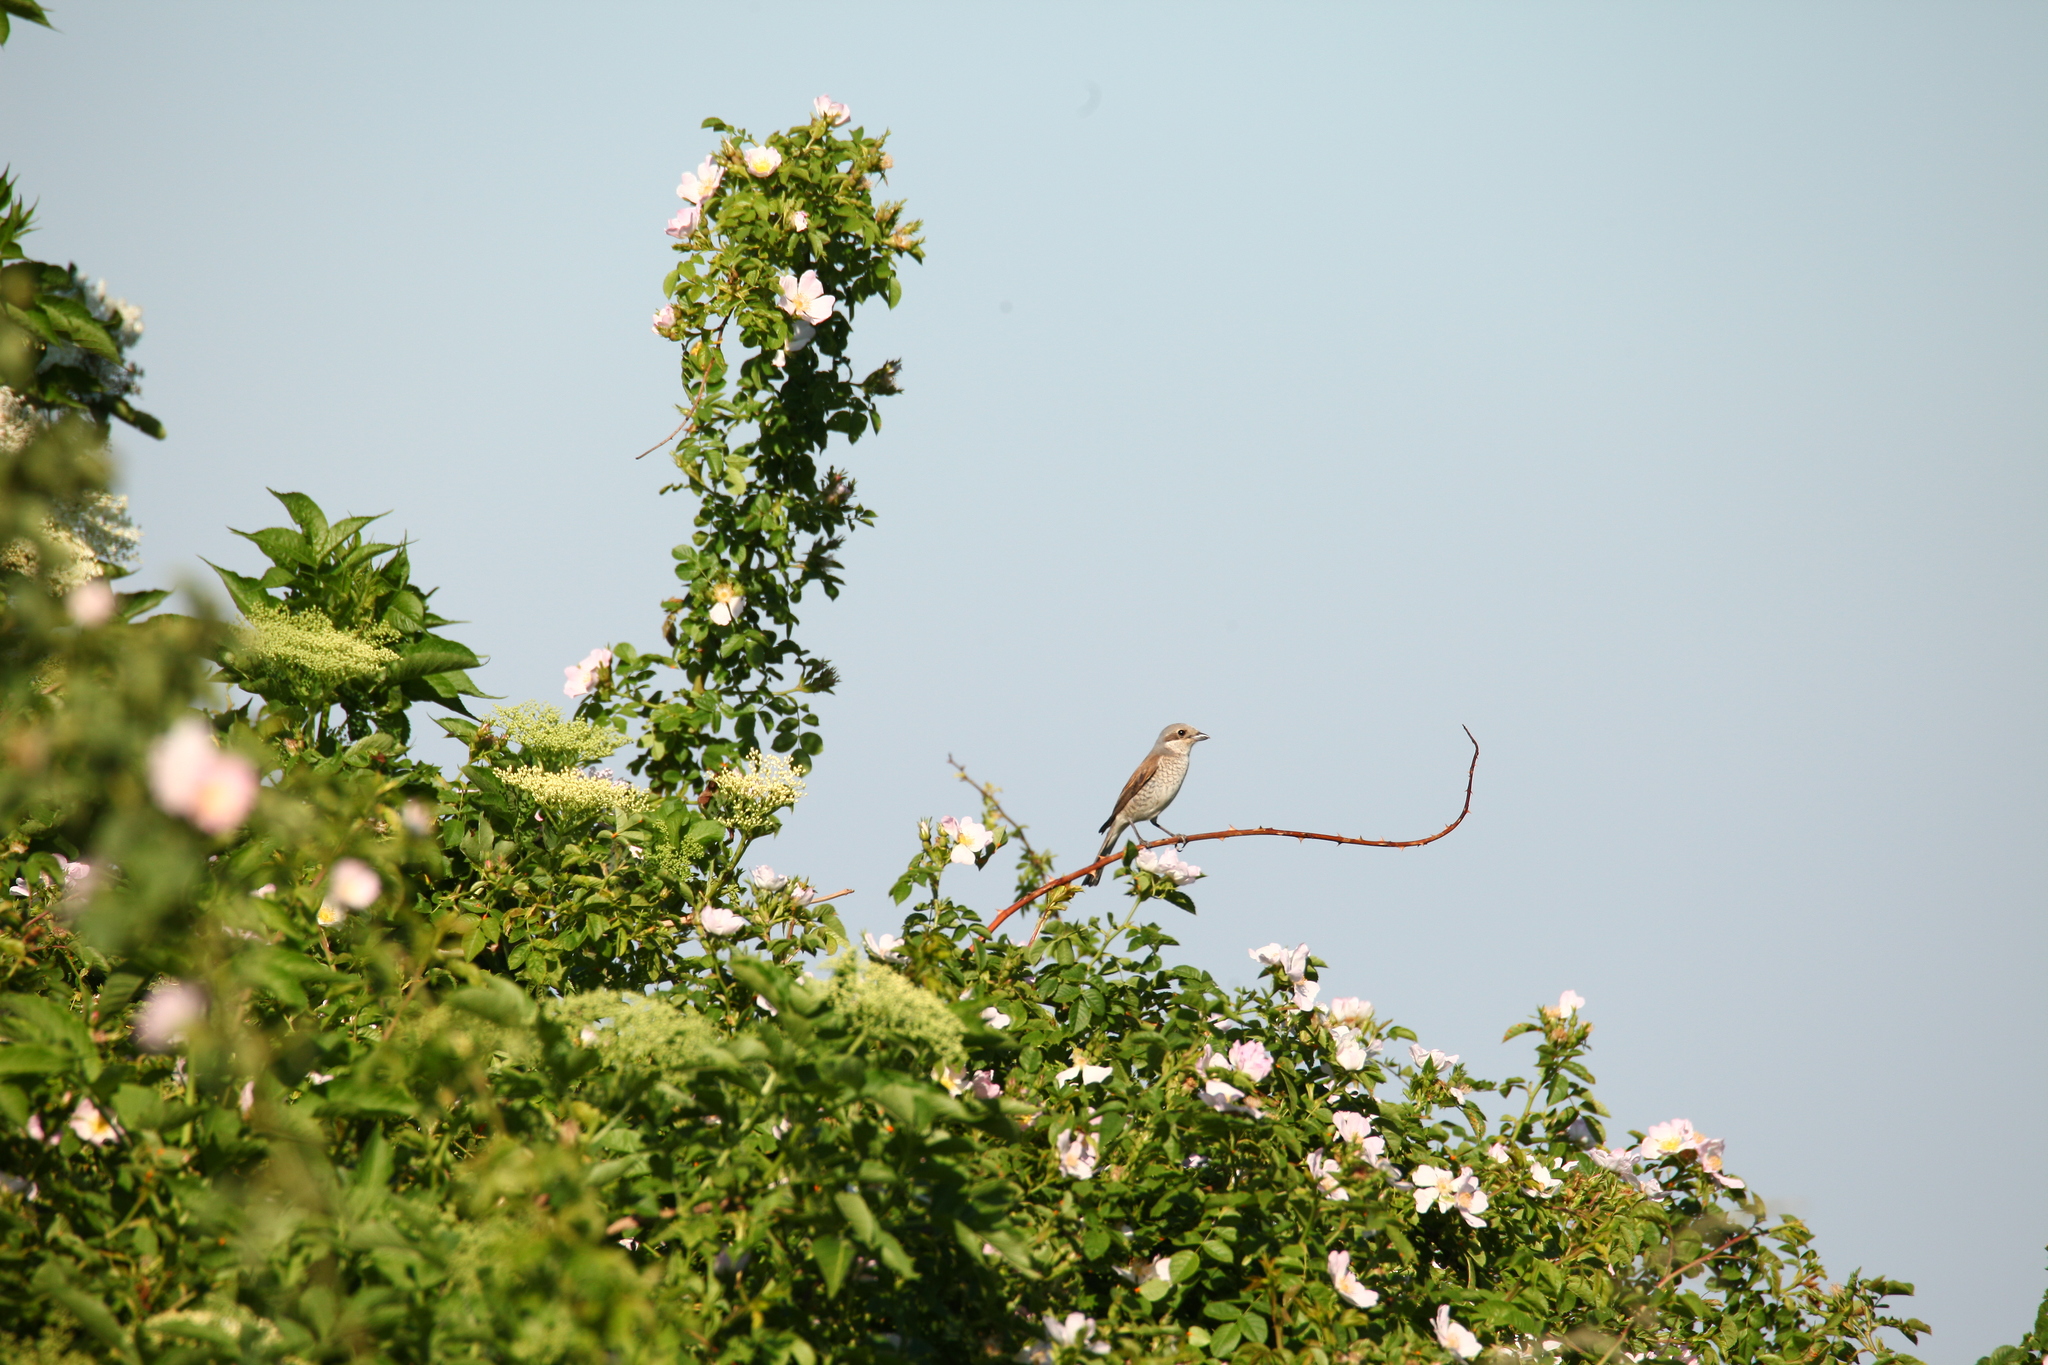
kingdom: Animalia
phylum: Chordata
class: Aves
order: Passeriformes
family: Laniidae
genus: Lanius
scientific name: Lanius collurio
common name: Red-backed shrike
